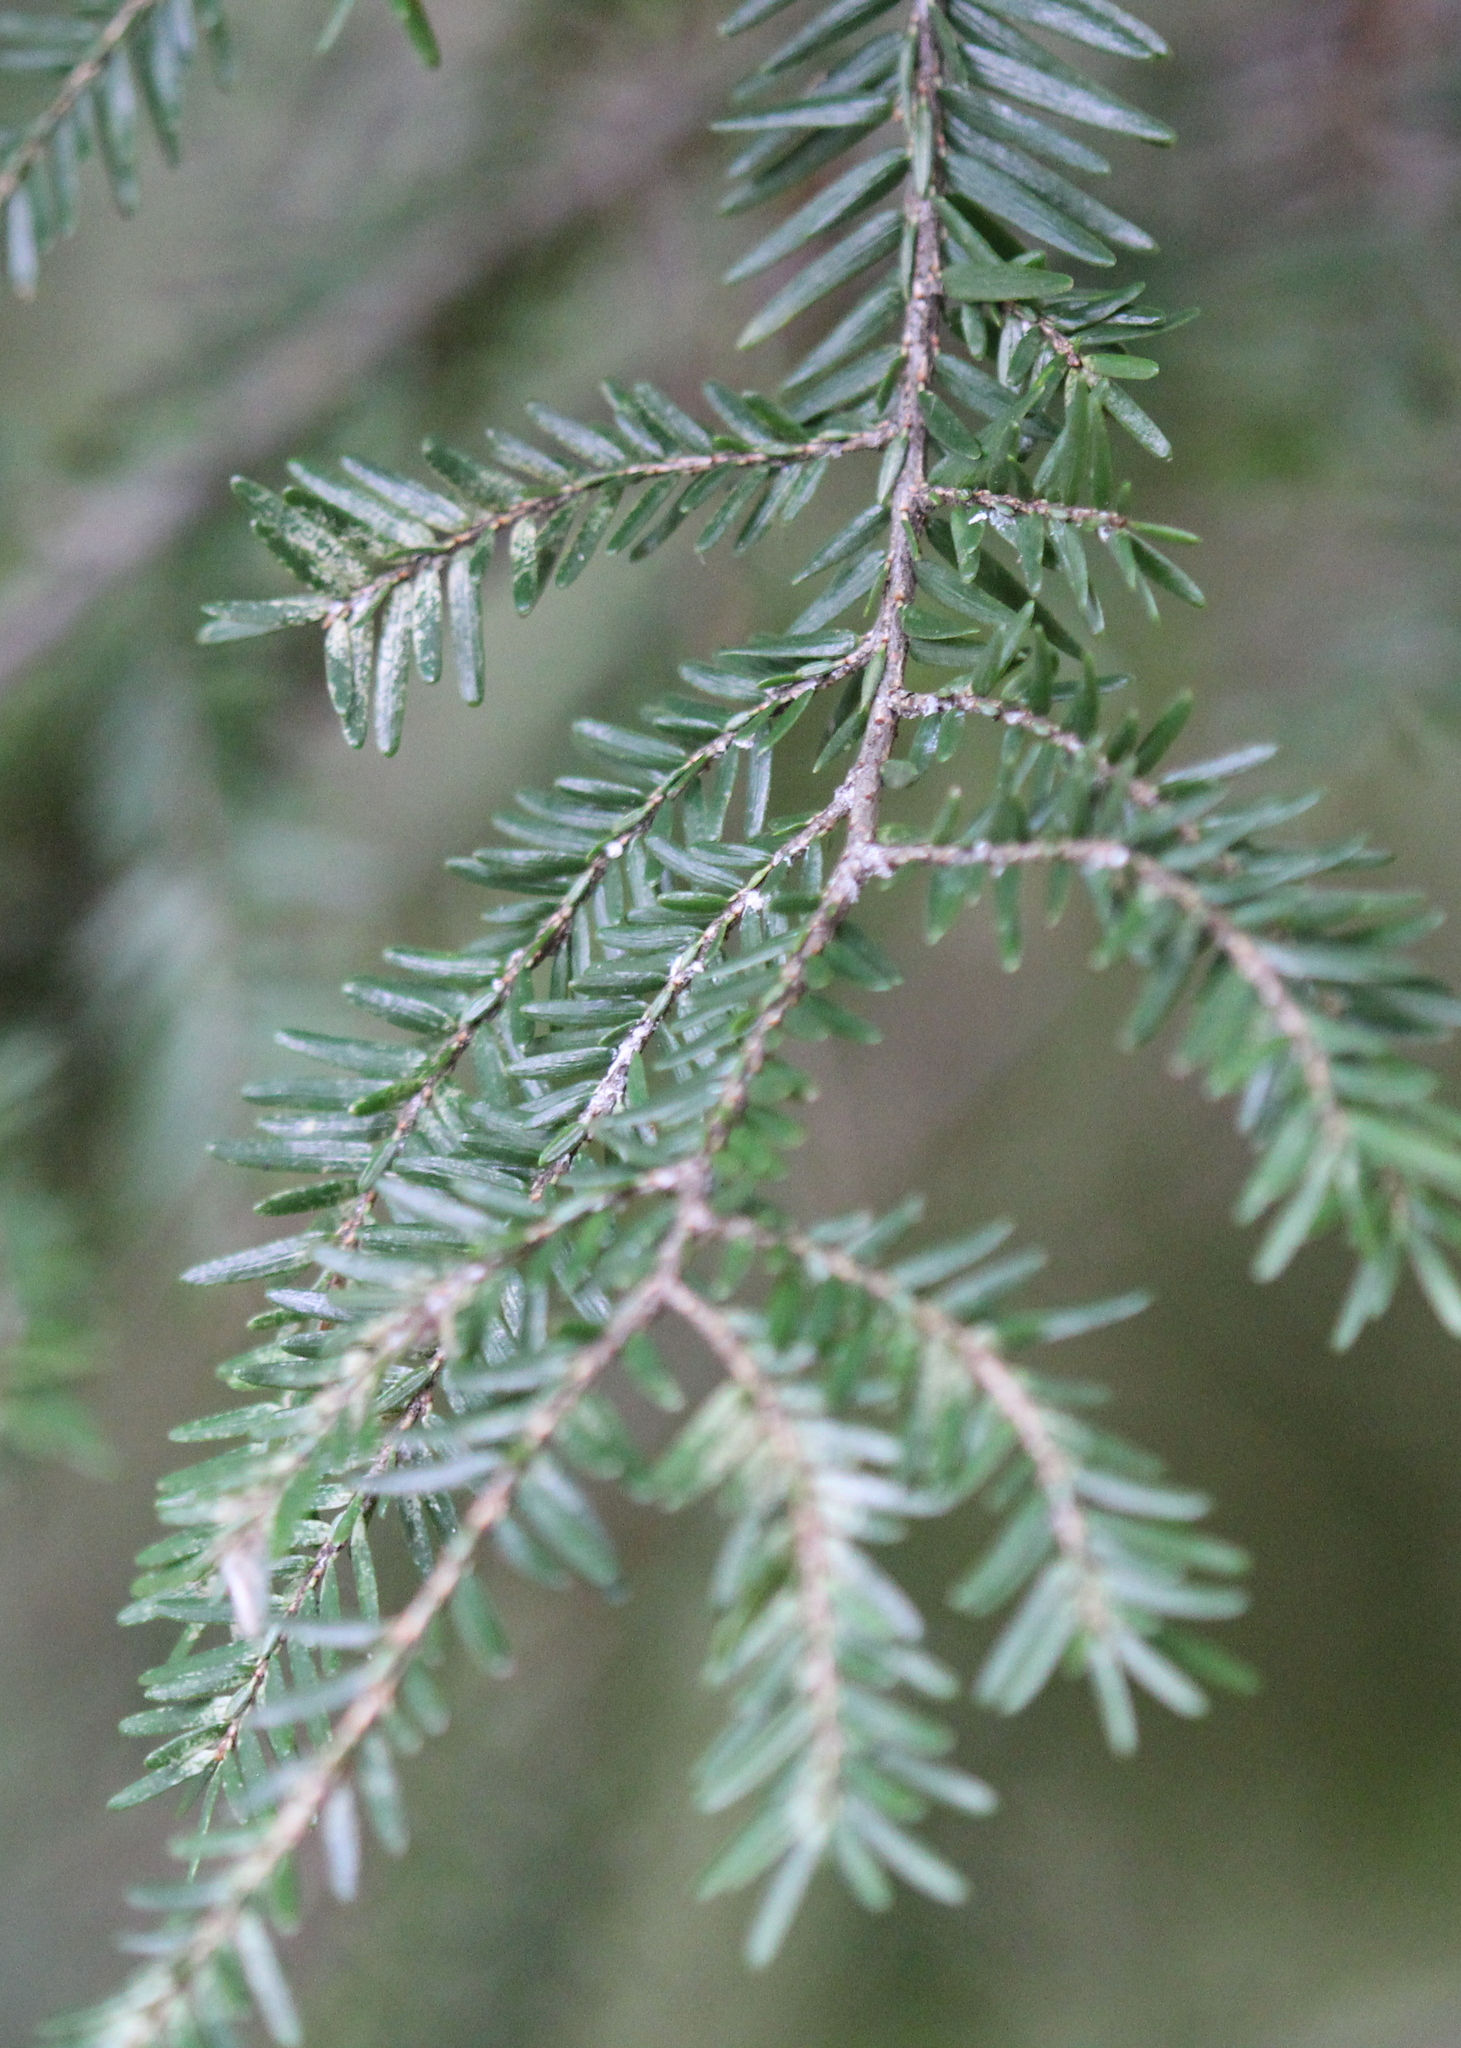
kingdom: Plantae
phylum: Tracheophyta
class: Pinopsida
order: Pinales
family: Pinaceae
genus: Tsuga
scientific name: Tsuga canadensis
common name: Eastern hemlock
